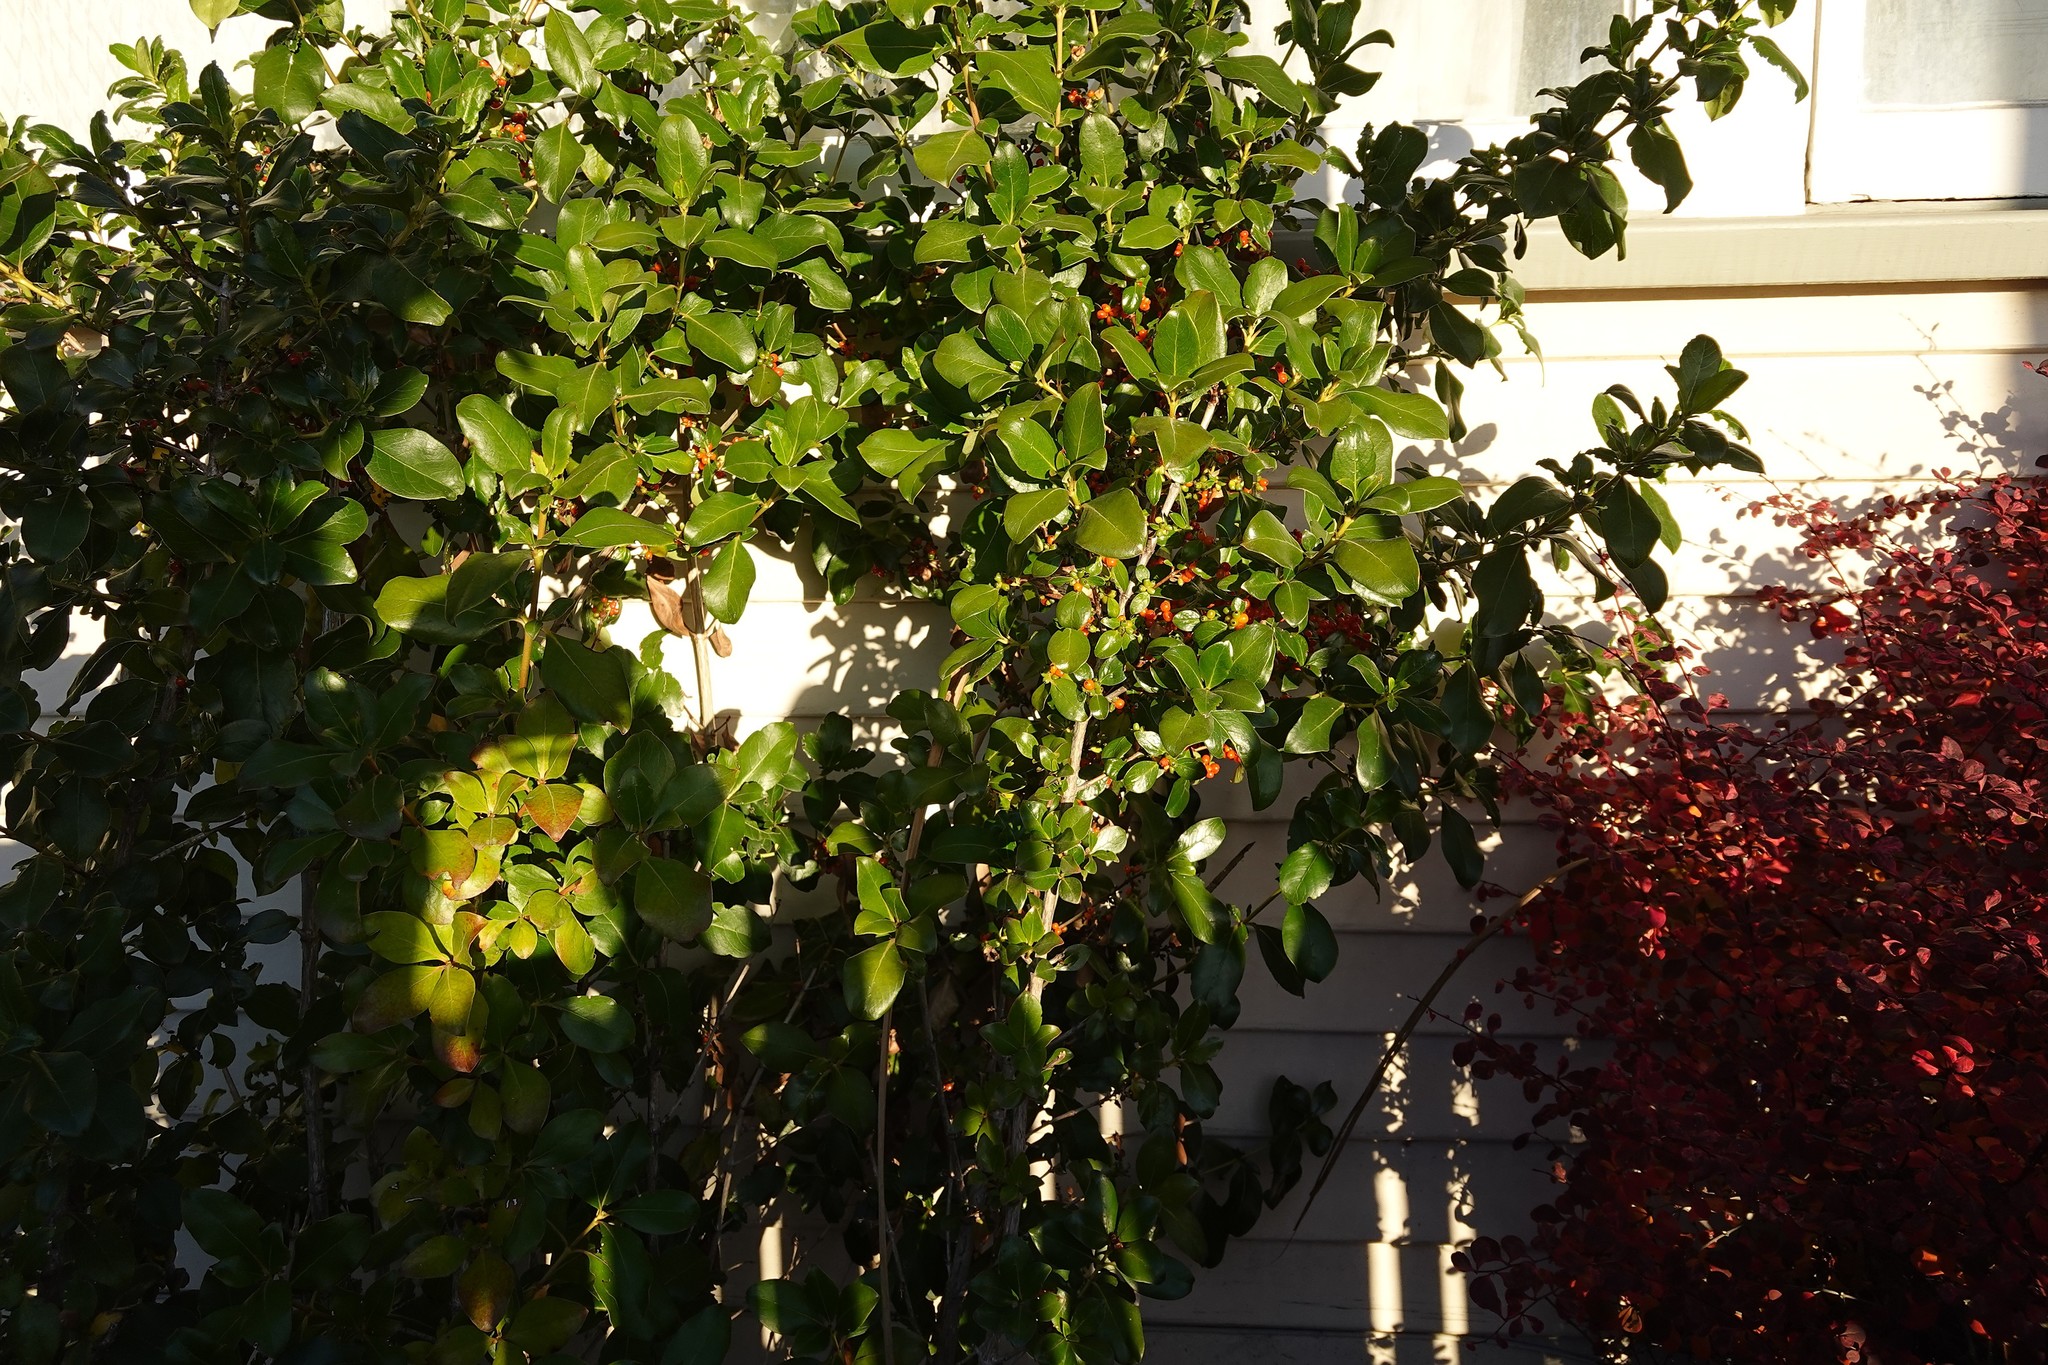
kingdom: Plantae
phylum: Tracheophyta
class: Magnoliopsida
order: Gentianales
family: Rubiaceae
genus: Coprosma
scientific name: Coprosma robusta
